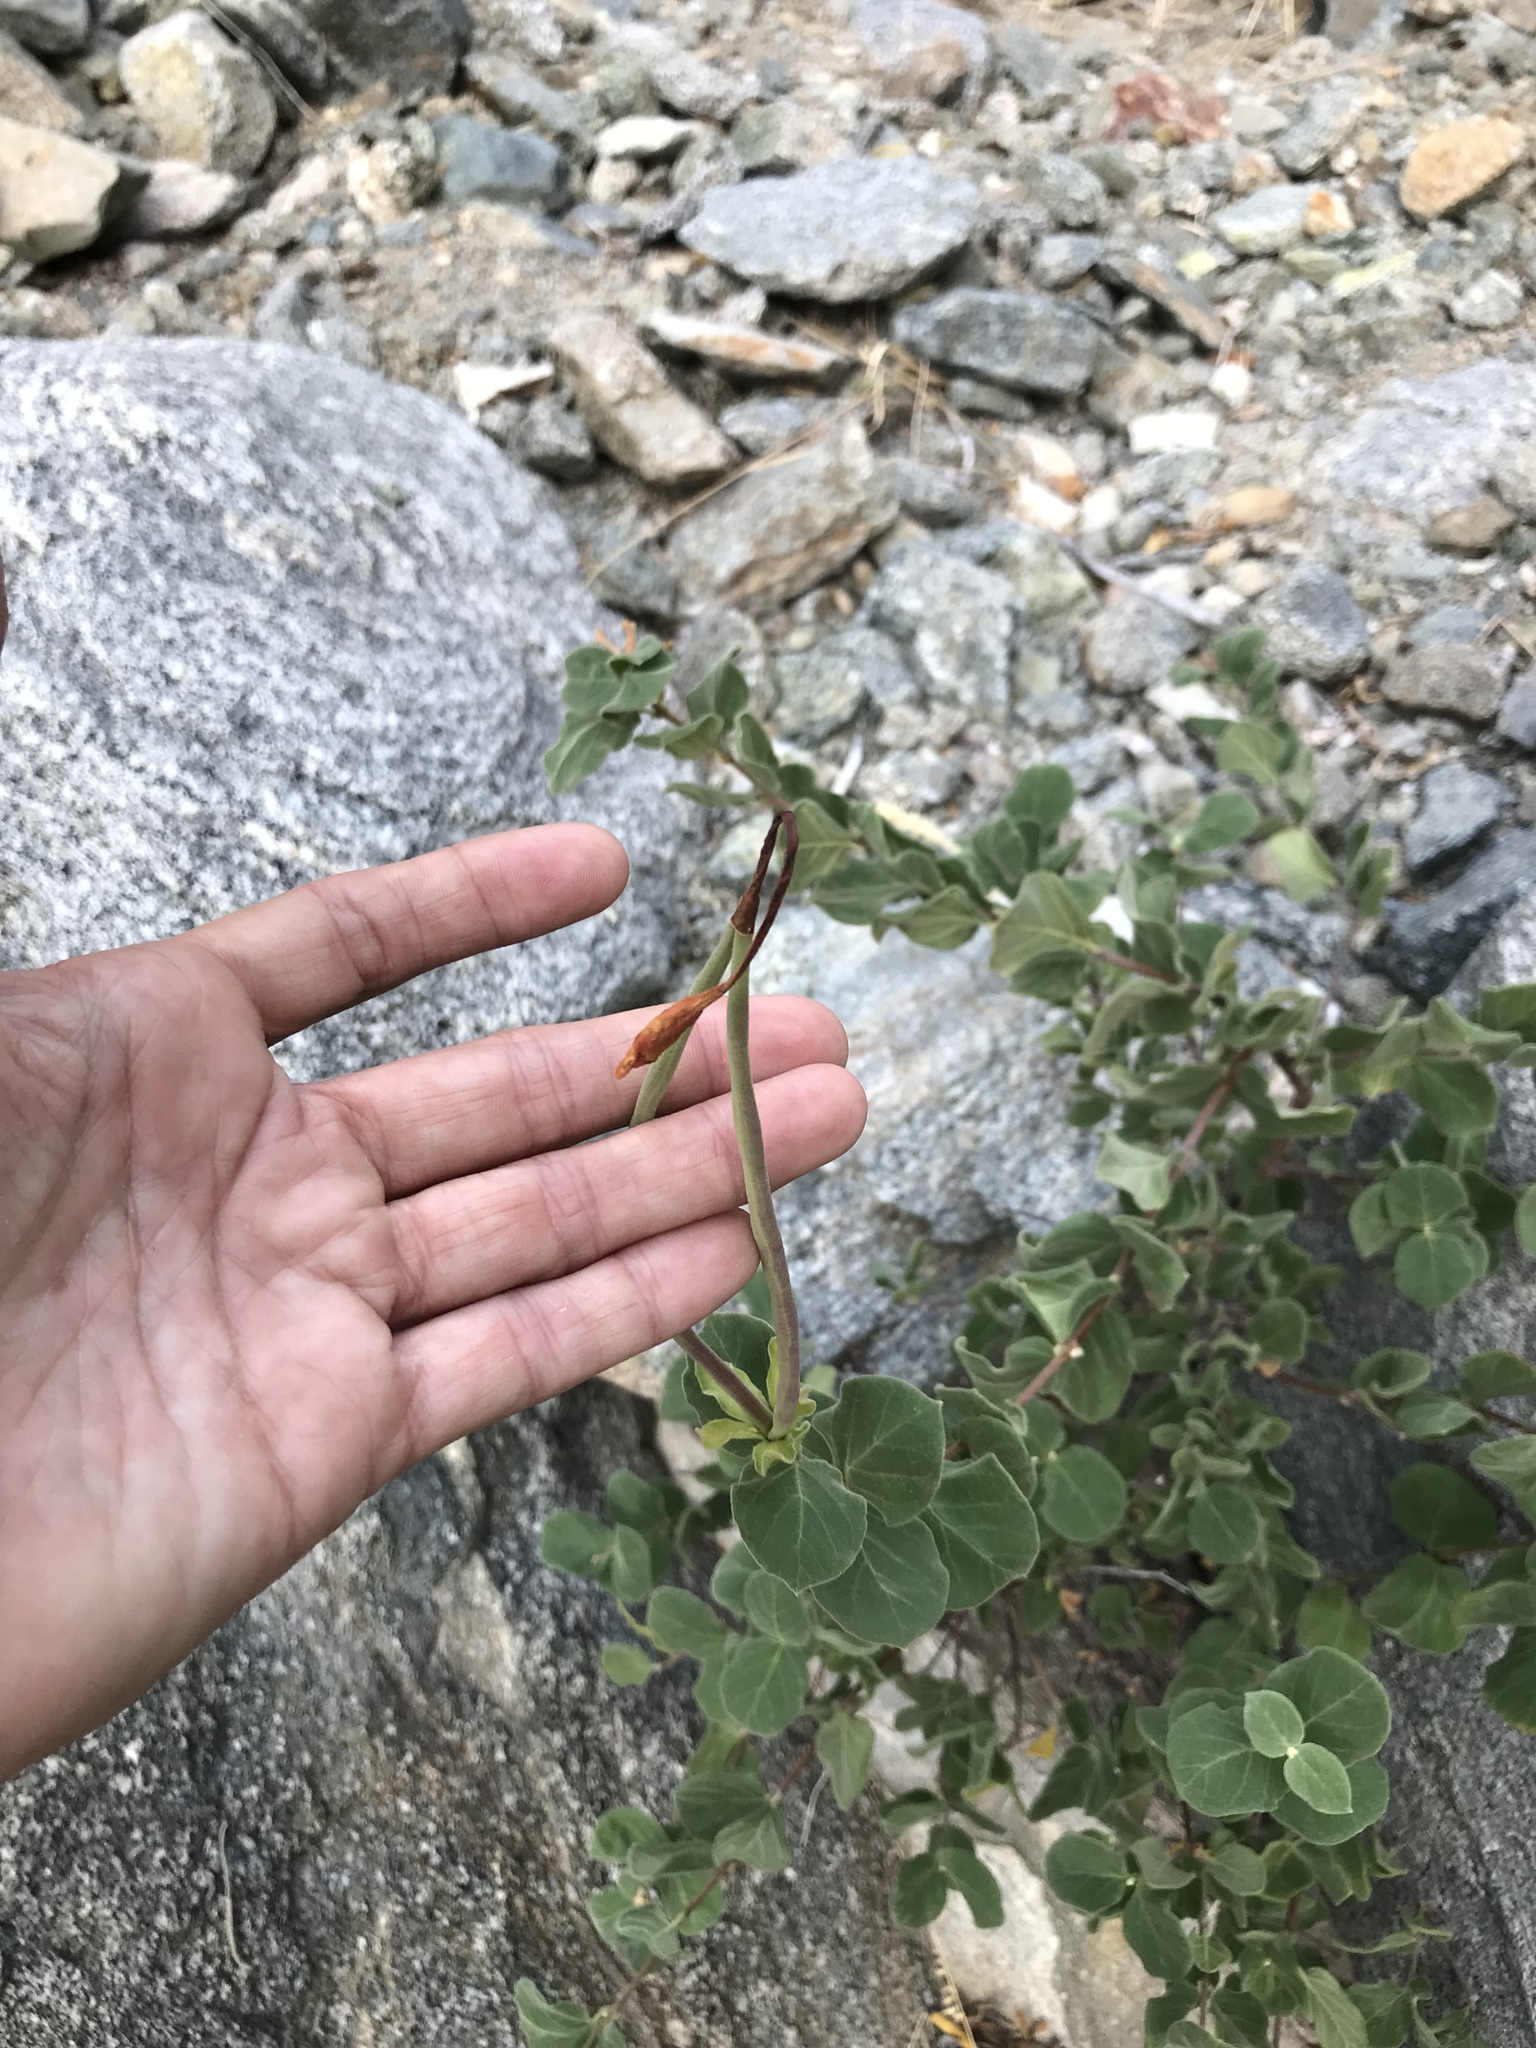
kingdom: Plantae
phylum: Tracheophyta
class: Magnoliopsida
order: Gentianales
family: Apocynaceae
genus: Mandevilla
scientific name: Mandevilla hesperia
